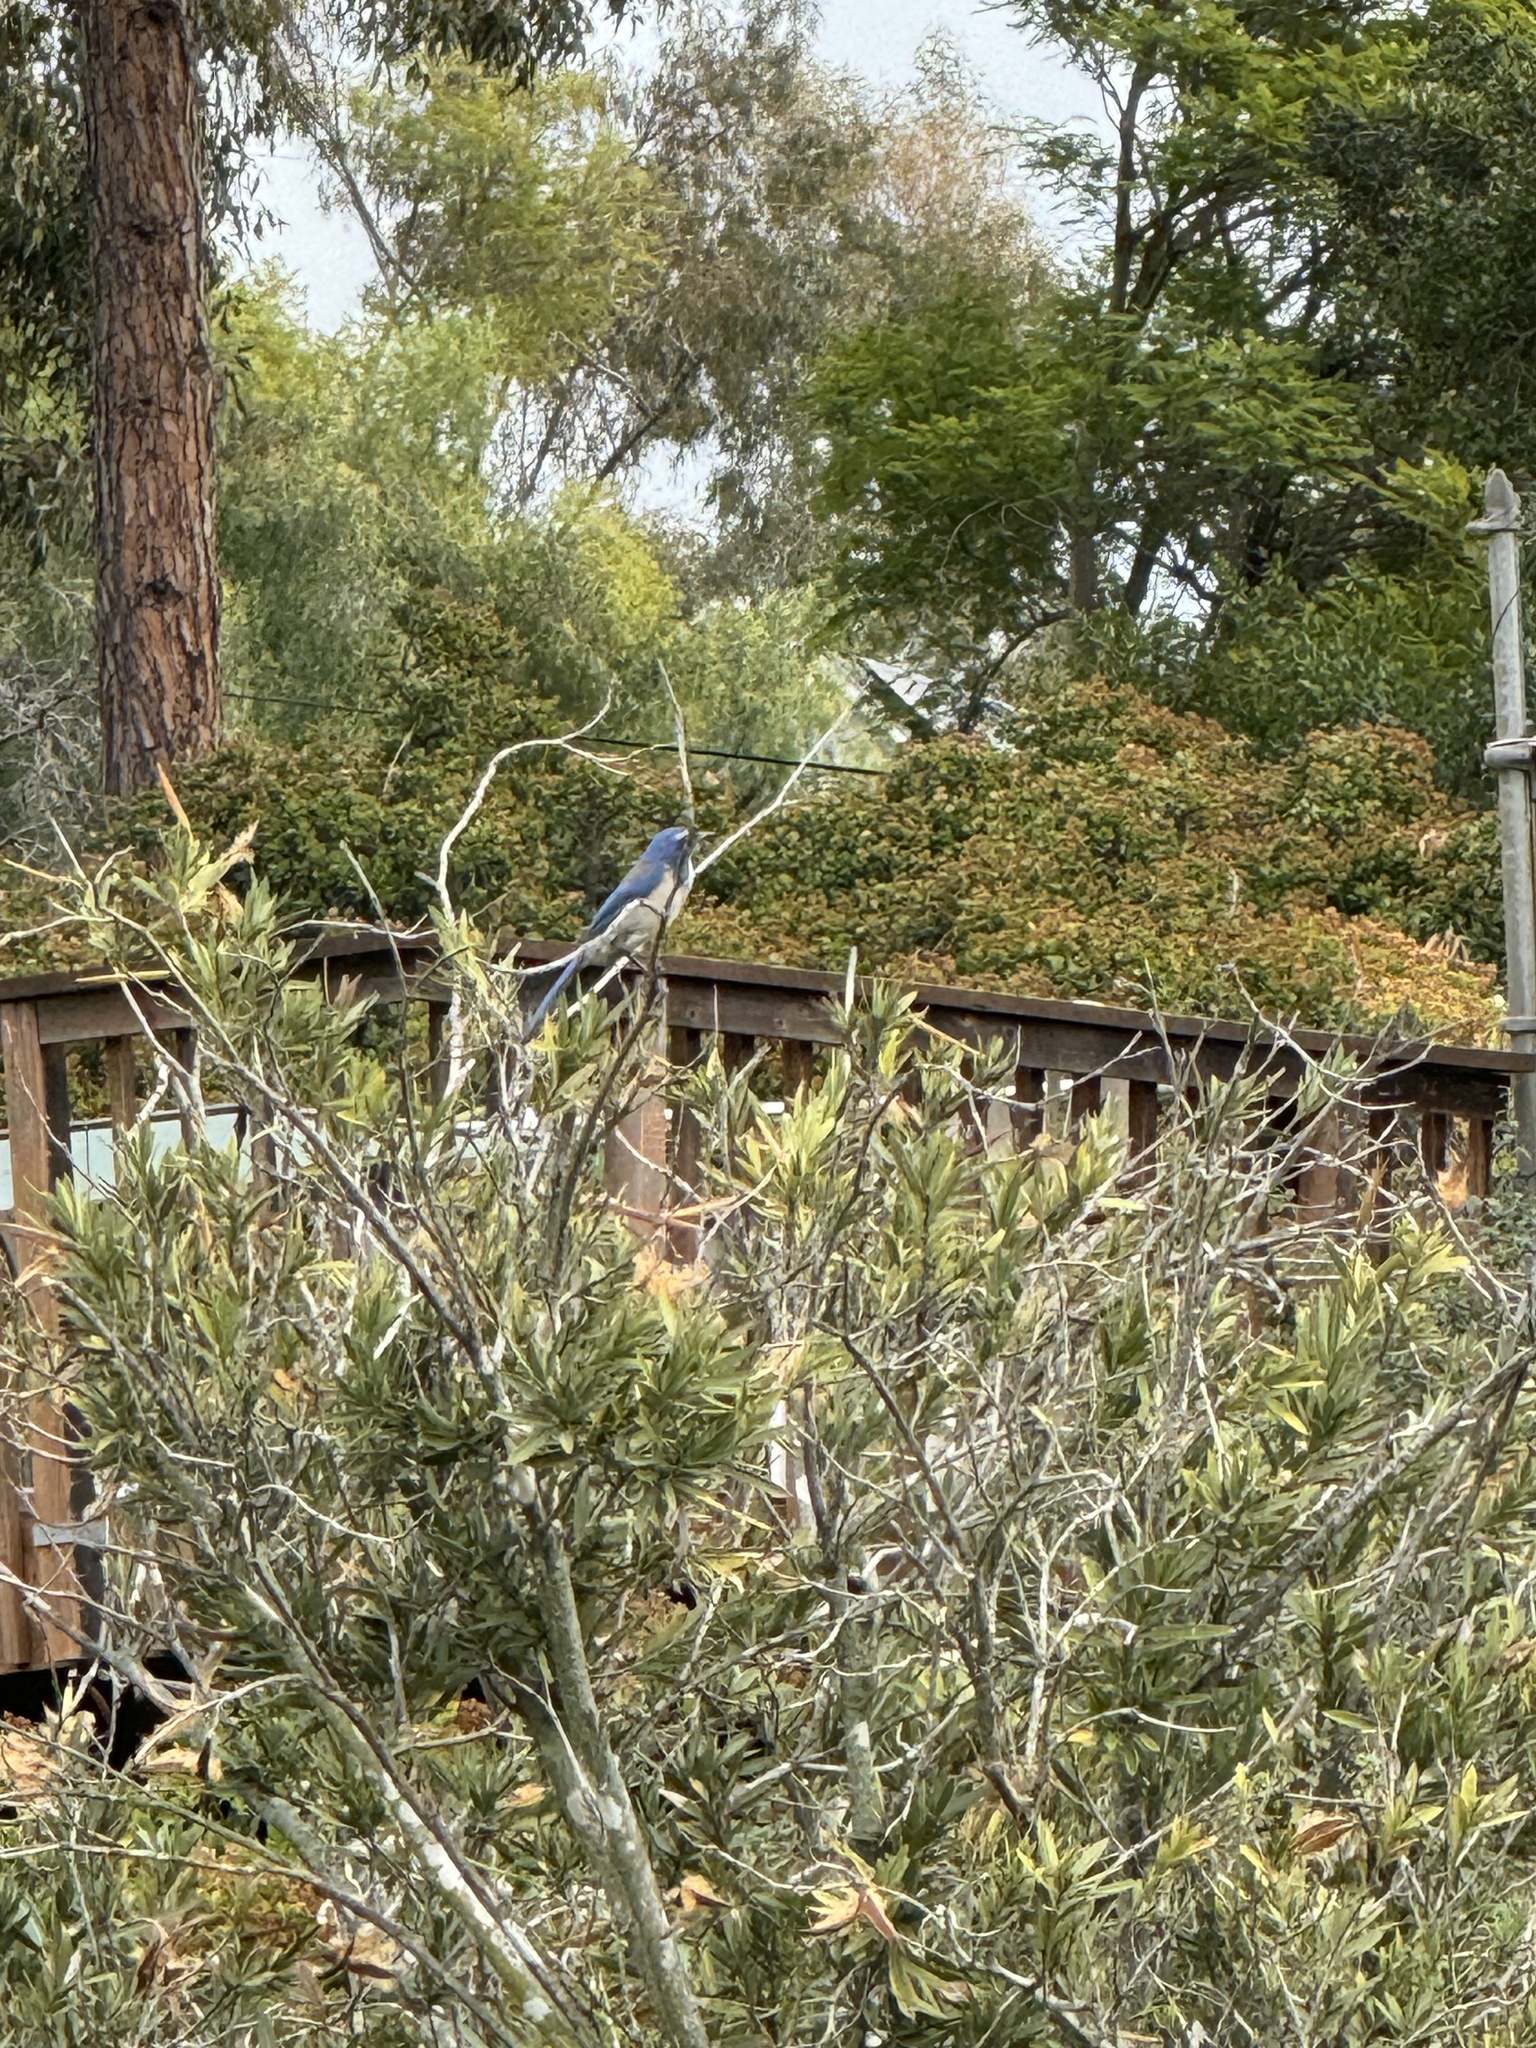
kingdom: Animalia
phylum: Chordata
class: Aves
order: Passeriformes
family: Corvidae
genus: Aphelocoma
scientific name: Aphelocoma californica
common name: California scrub-jay
